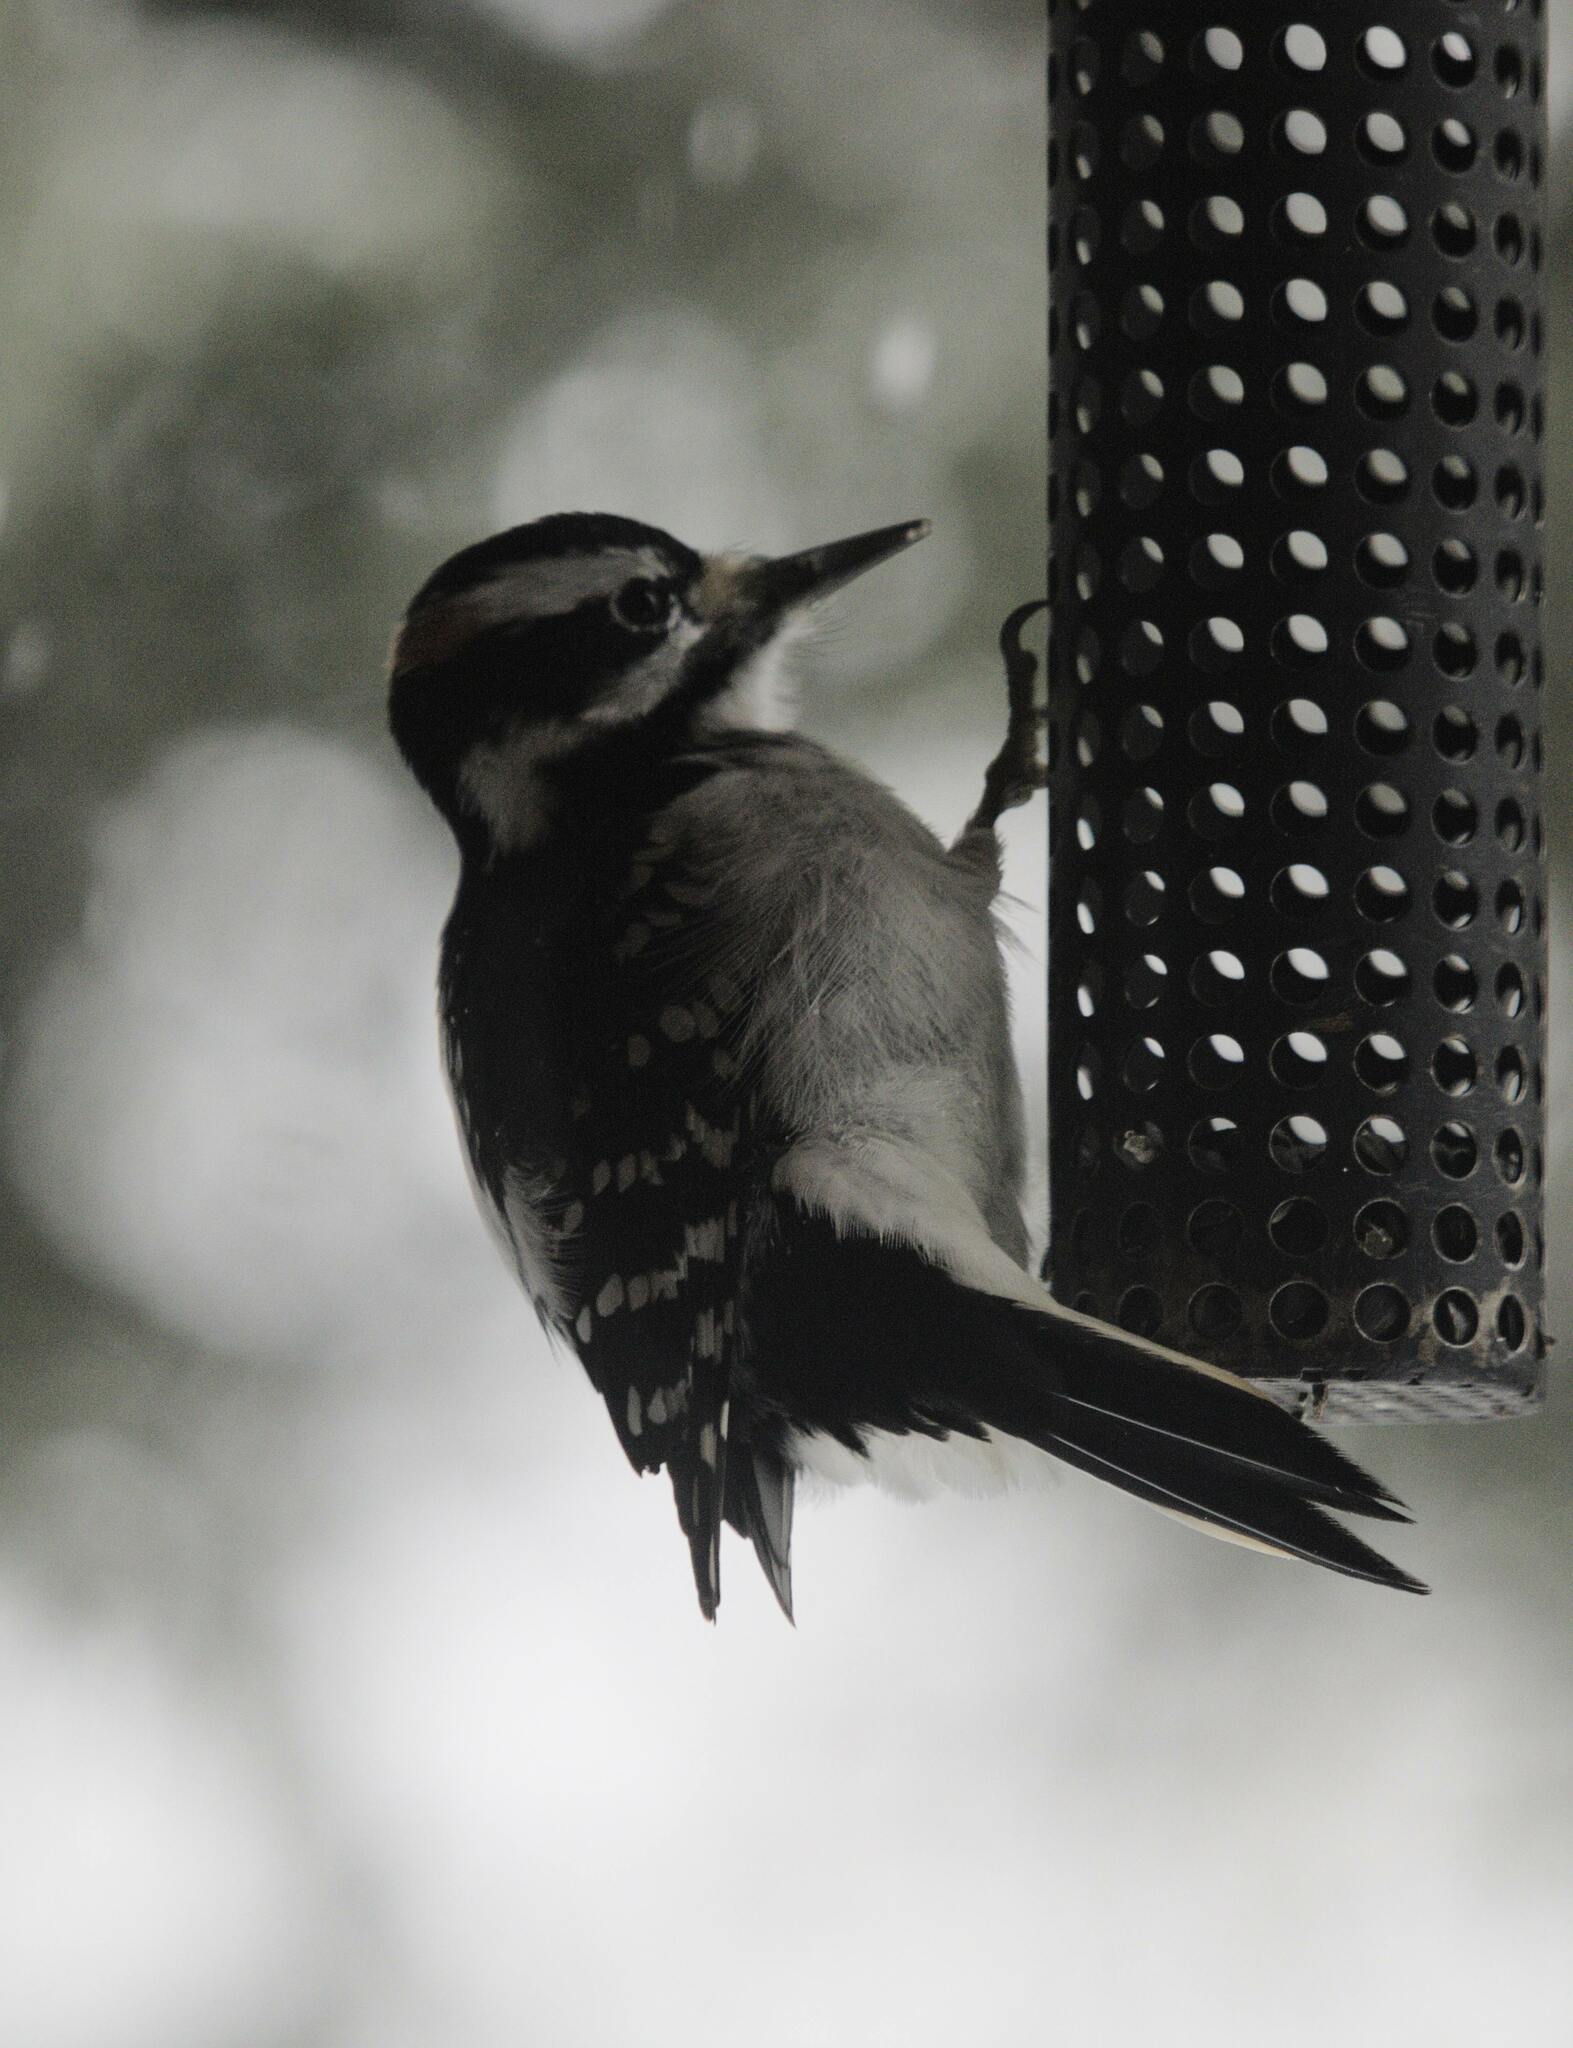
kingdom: Animalia
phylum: Chordata
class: Aves
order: Piciformes
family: Picidae
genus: Leuconotopicus
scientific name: Leuconotopicus villosus
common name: Hairy woodpecker
